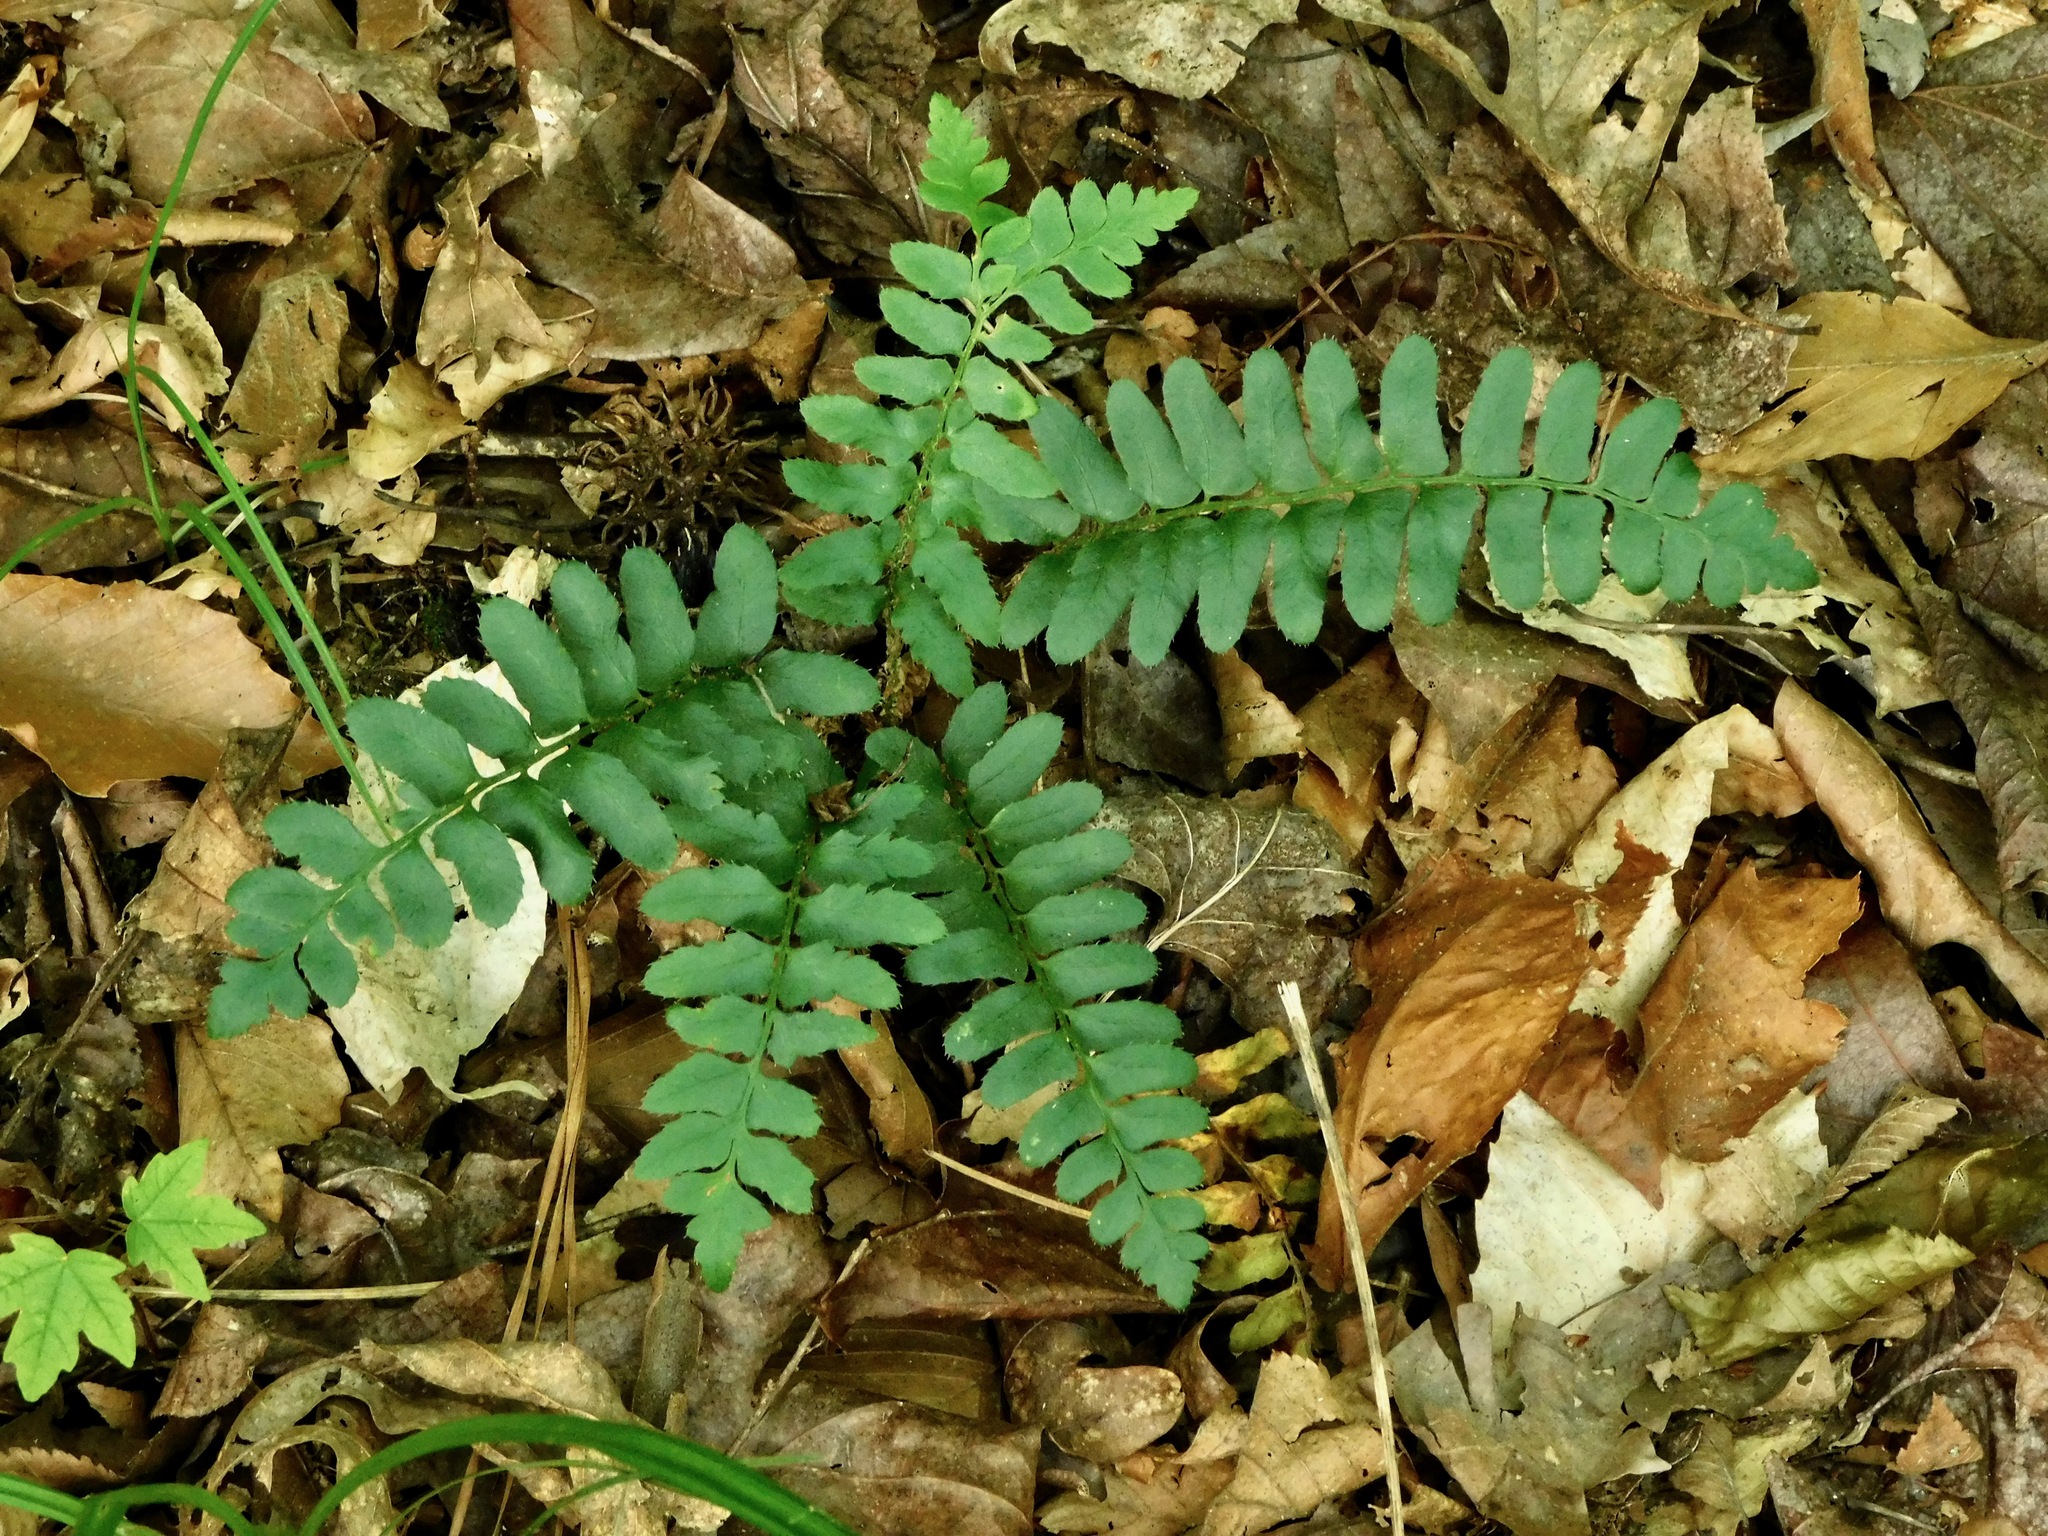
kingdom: Plantae
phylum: Tracheophyta
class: Polypodiopsida
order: Polypodiales
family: Dryopteridaceae
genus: Polystichum
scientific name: Polystichum acrostichoides
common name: Christmas fern
